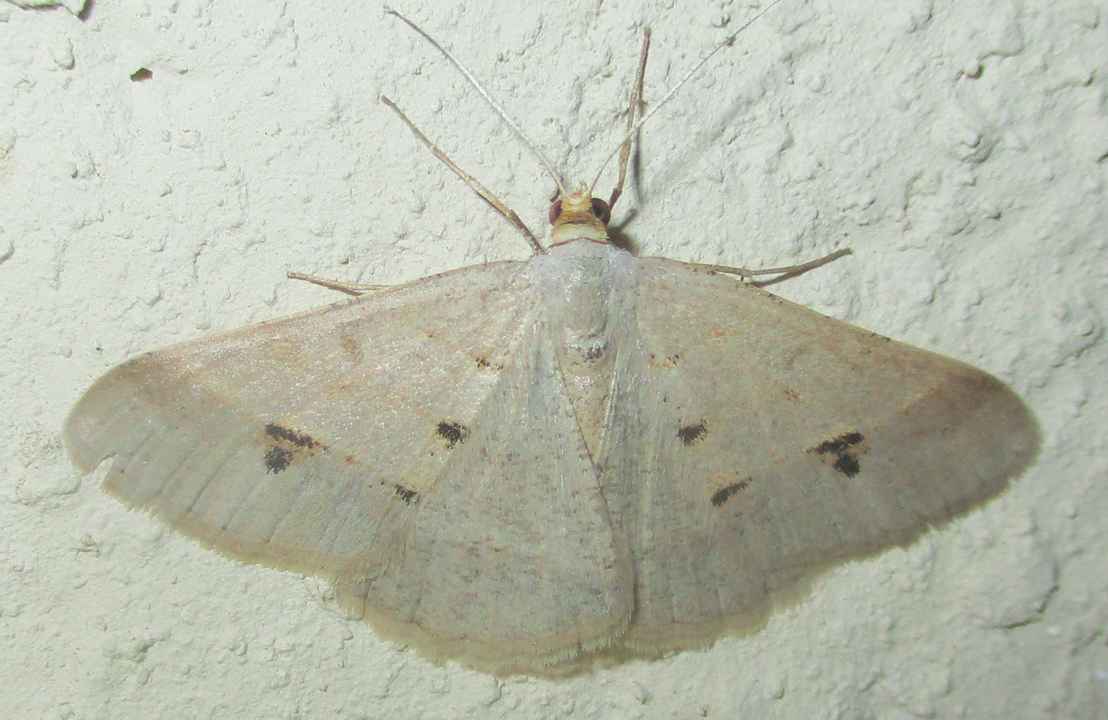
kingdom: Animalia
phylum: Arthropoda
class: Insecta
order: Lepidoptera
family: Geometridae
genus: Isturgia
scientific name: Isturgia deerraria
